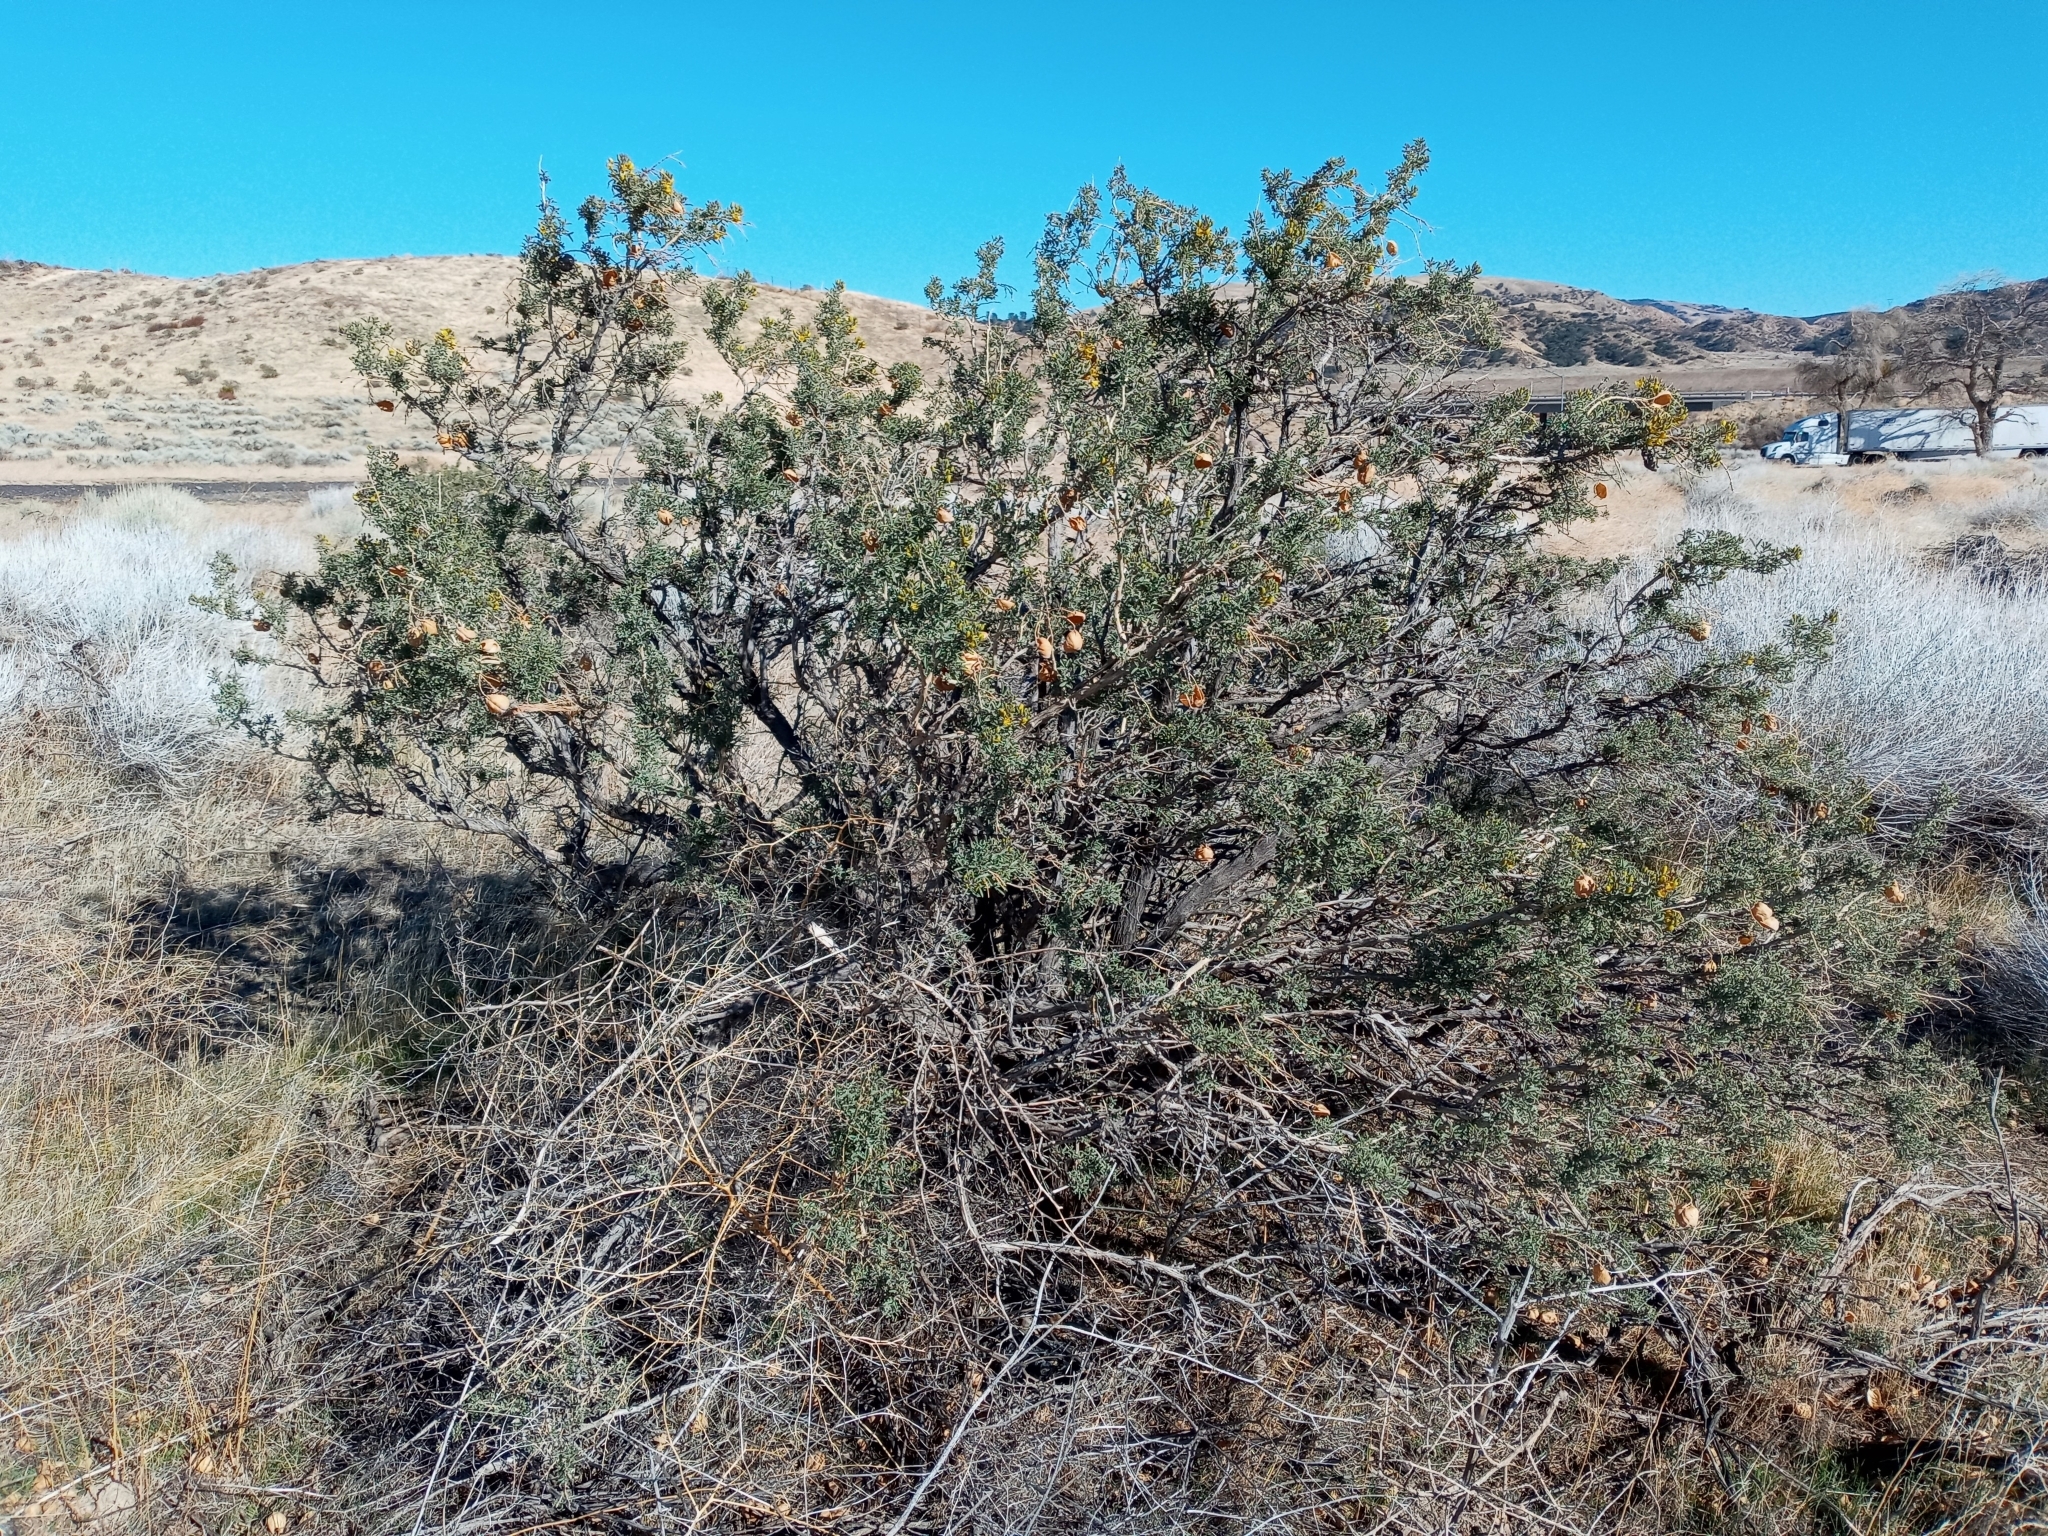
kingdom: Plantae
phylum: Tracheophyta
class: Magnoliopsida
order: Brassicales
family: Cleomaceae
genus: Cleomella
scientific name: Cleomella arborea
